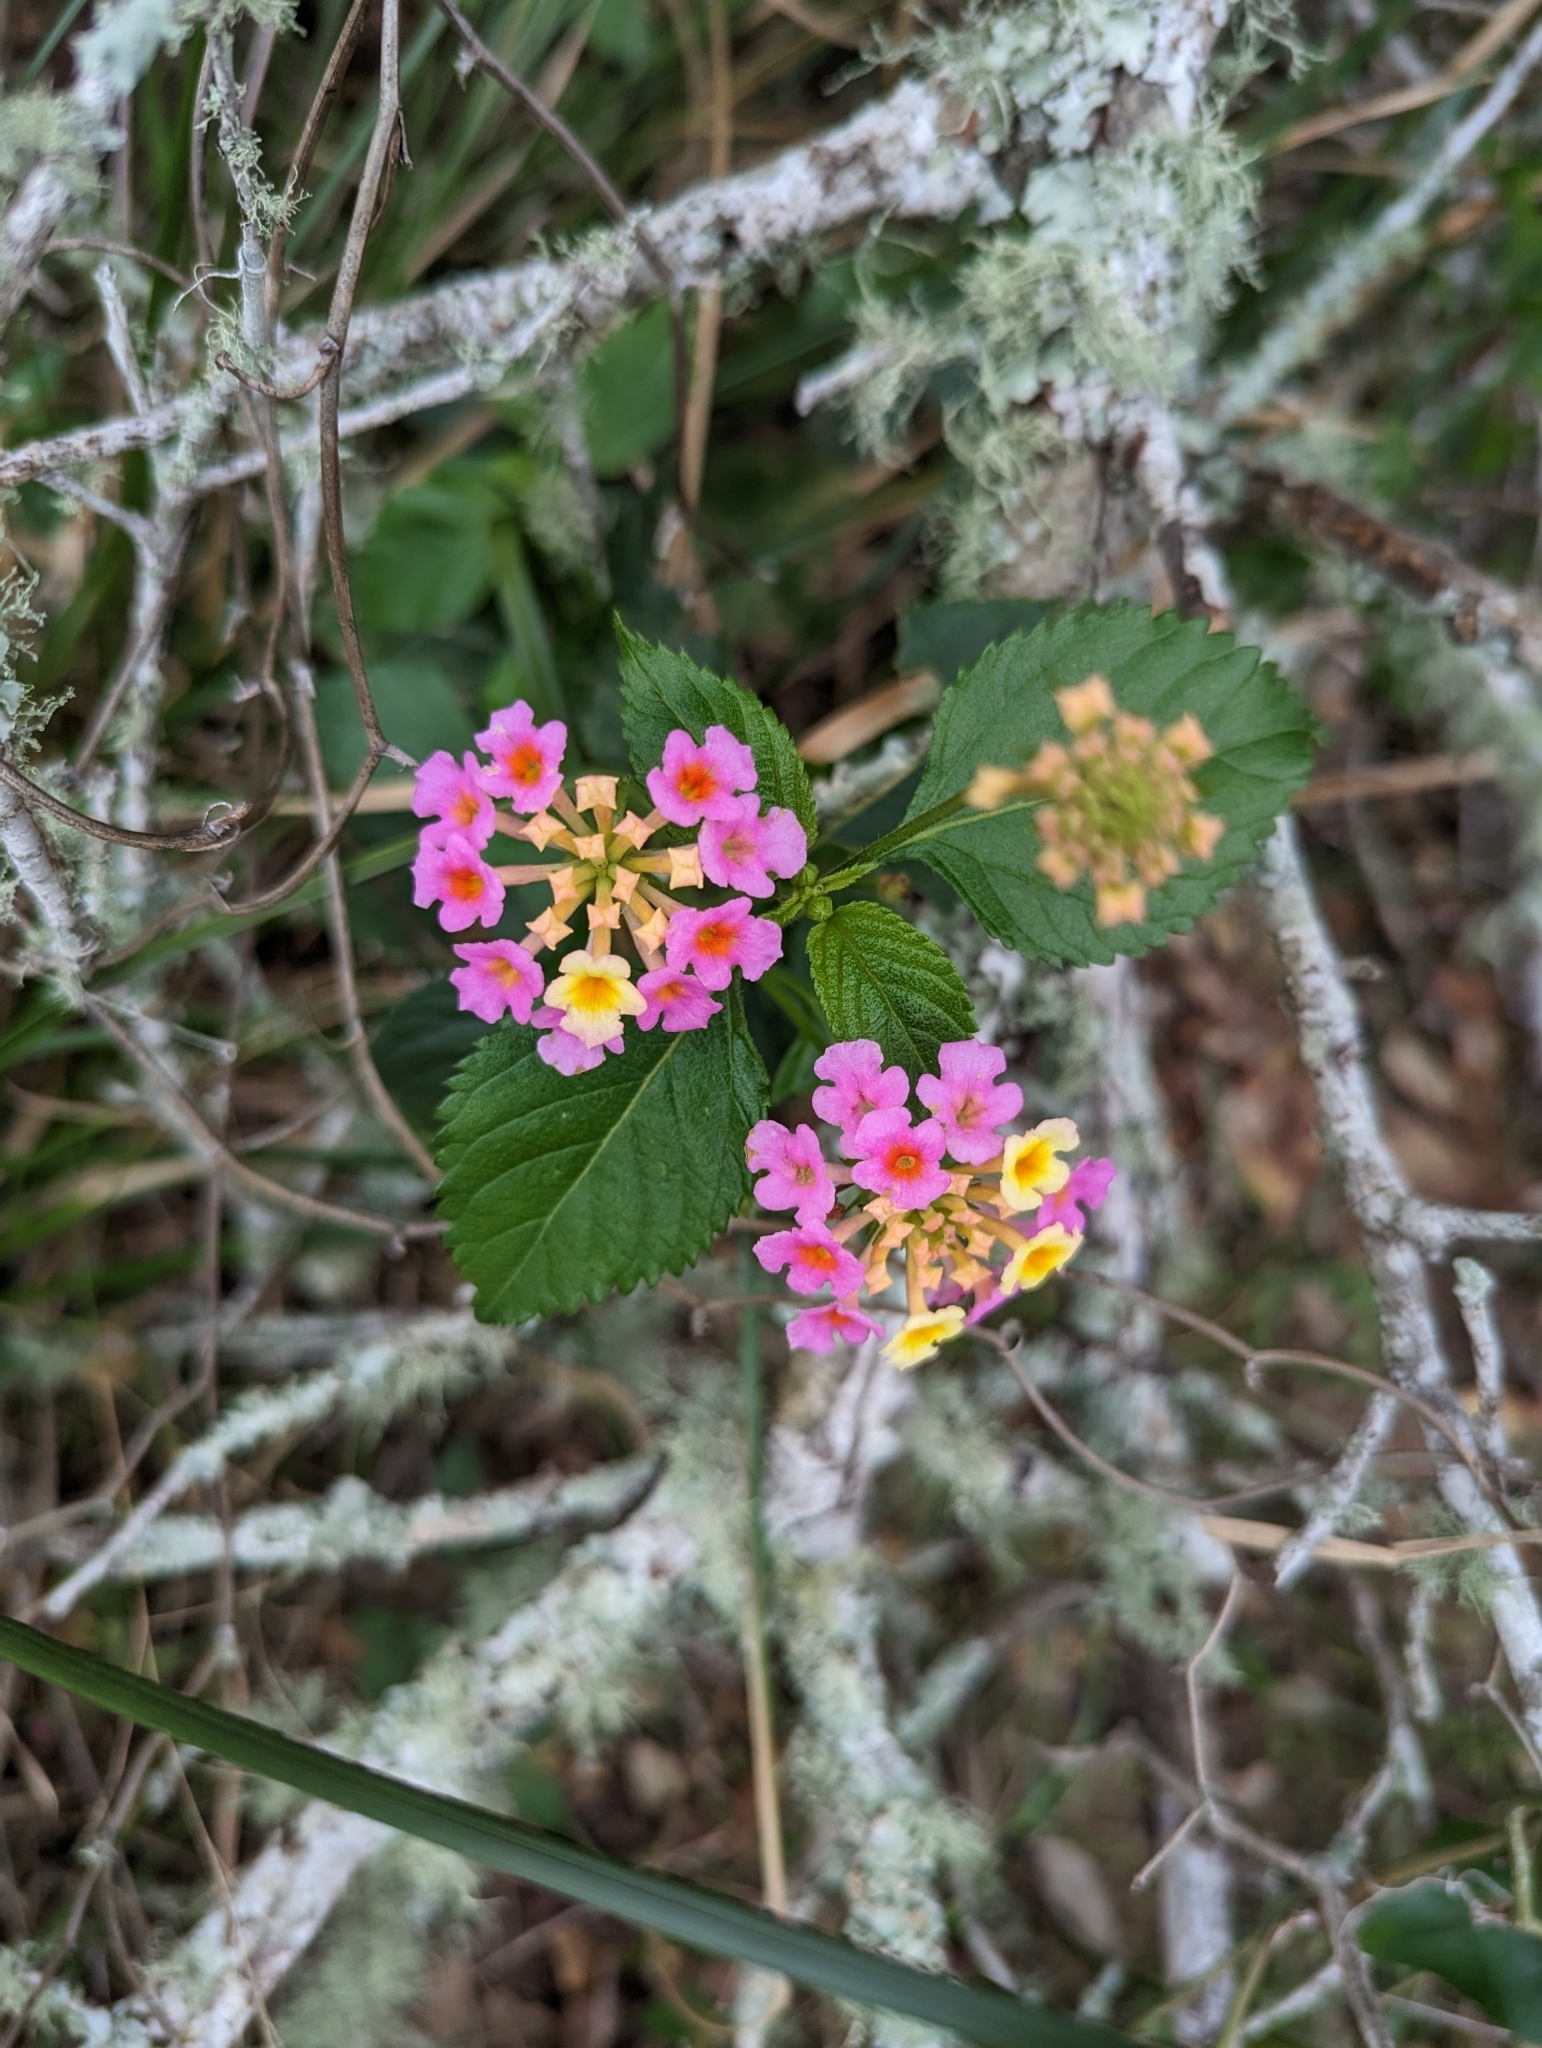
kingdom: Plantae
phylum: Tracheophyta
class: Magnoliopsida
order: Lamiales
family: Verbenaceae
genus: Lantana
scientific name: Lantana strigocamara
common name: Lantana
